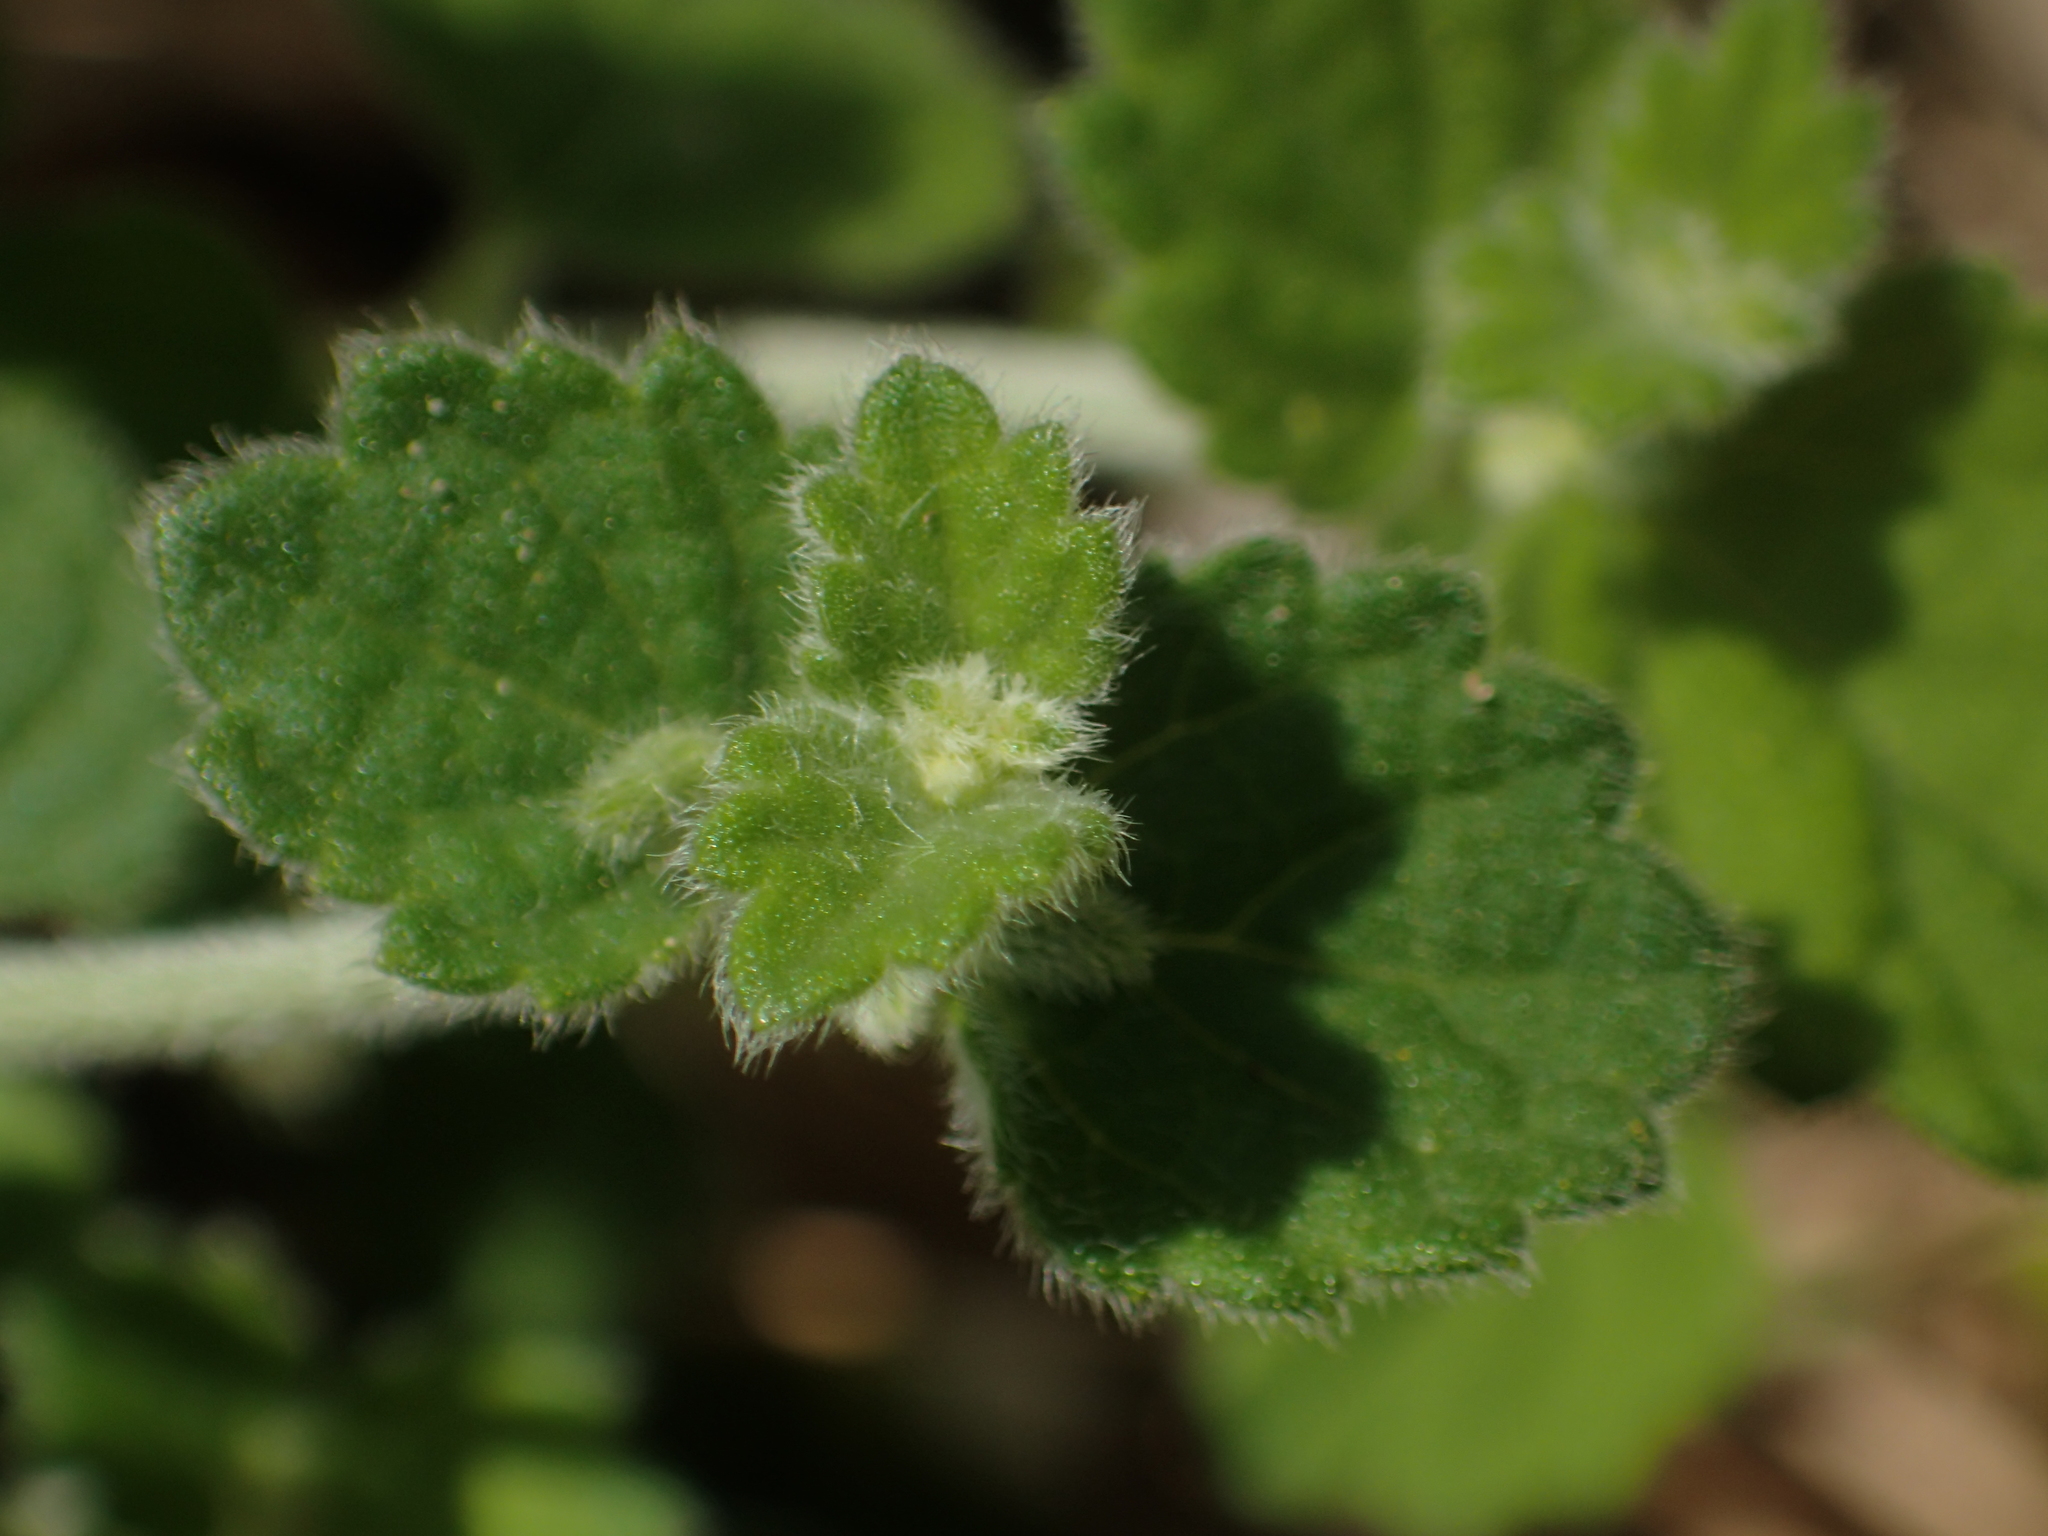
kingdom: Plantae
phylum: Tracheophyta
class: Magnoliopsida
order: Lamiales
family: Lamiaceae
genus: Leucas
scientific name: Leucas chinensis
